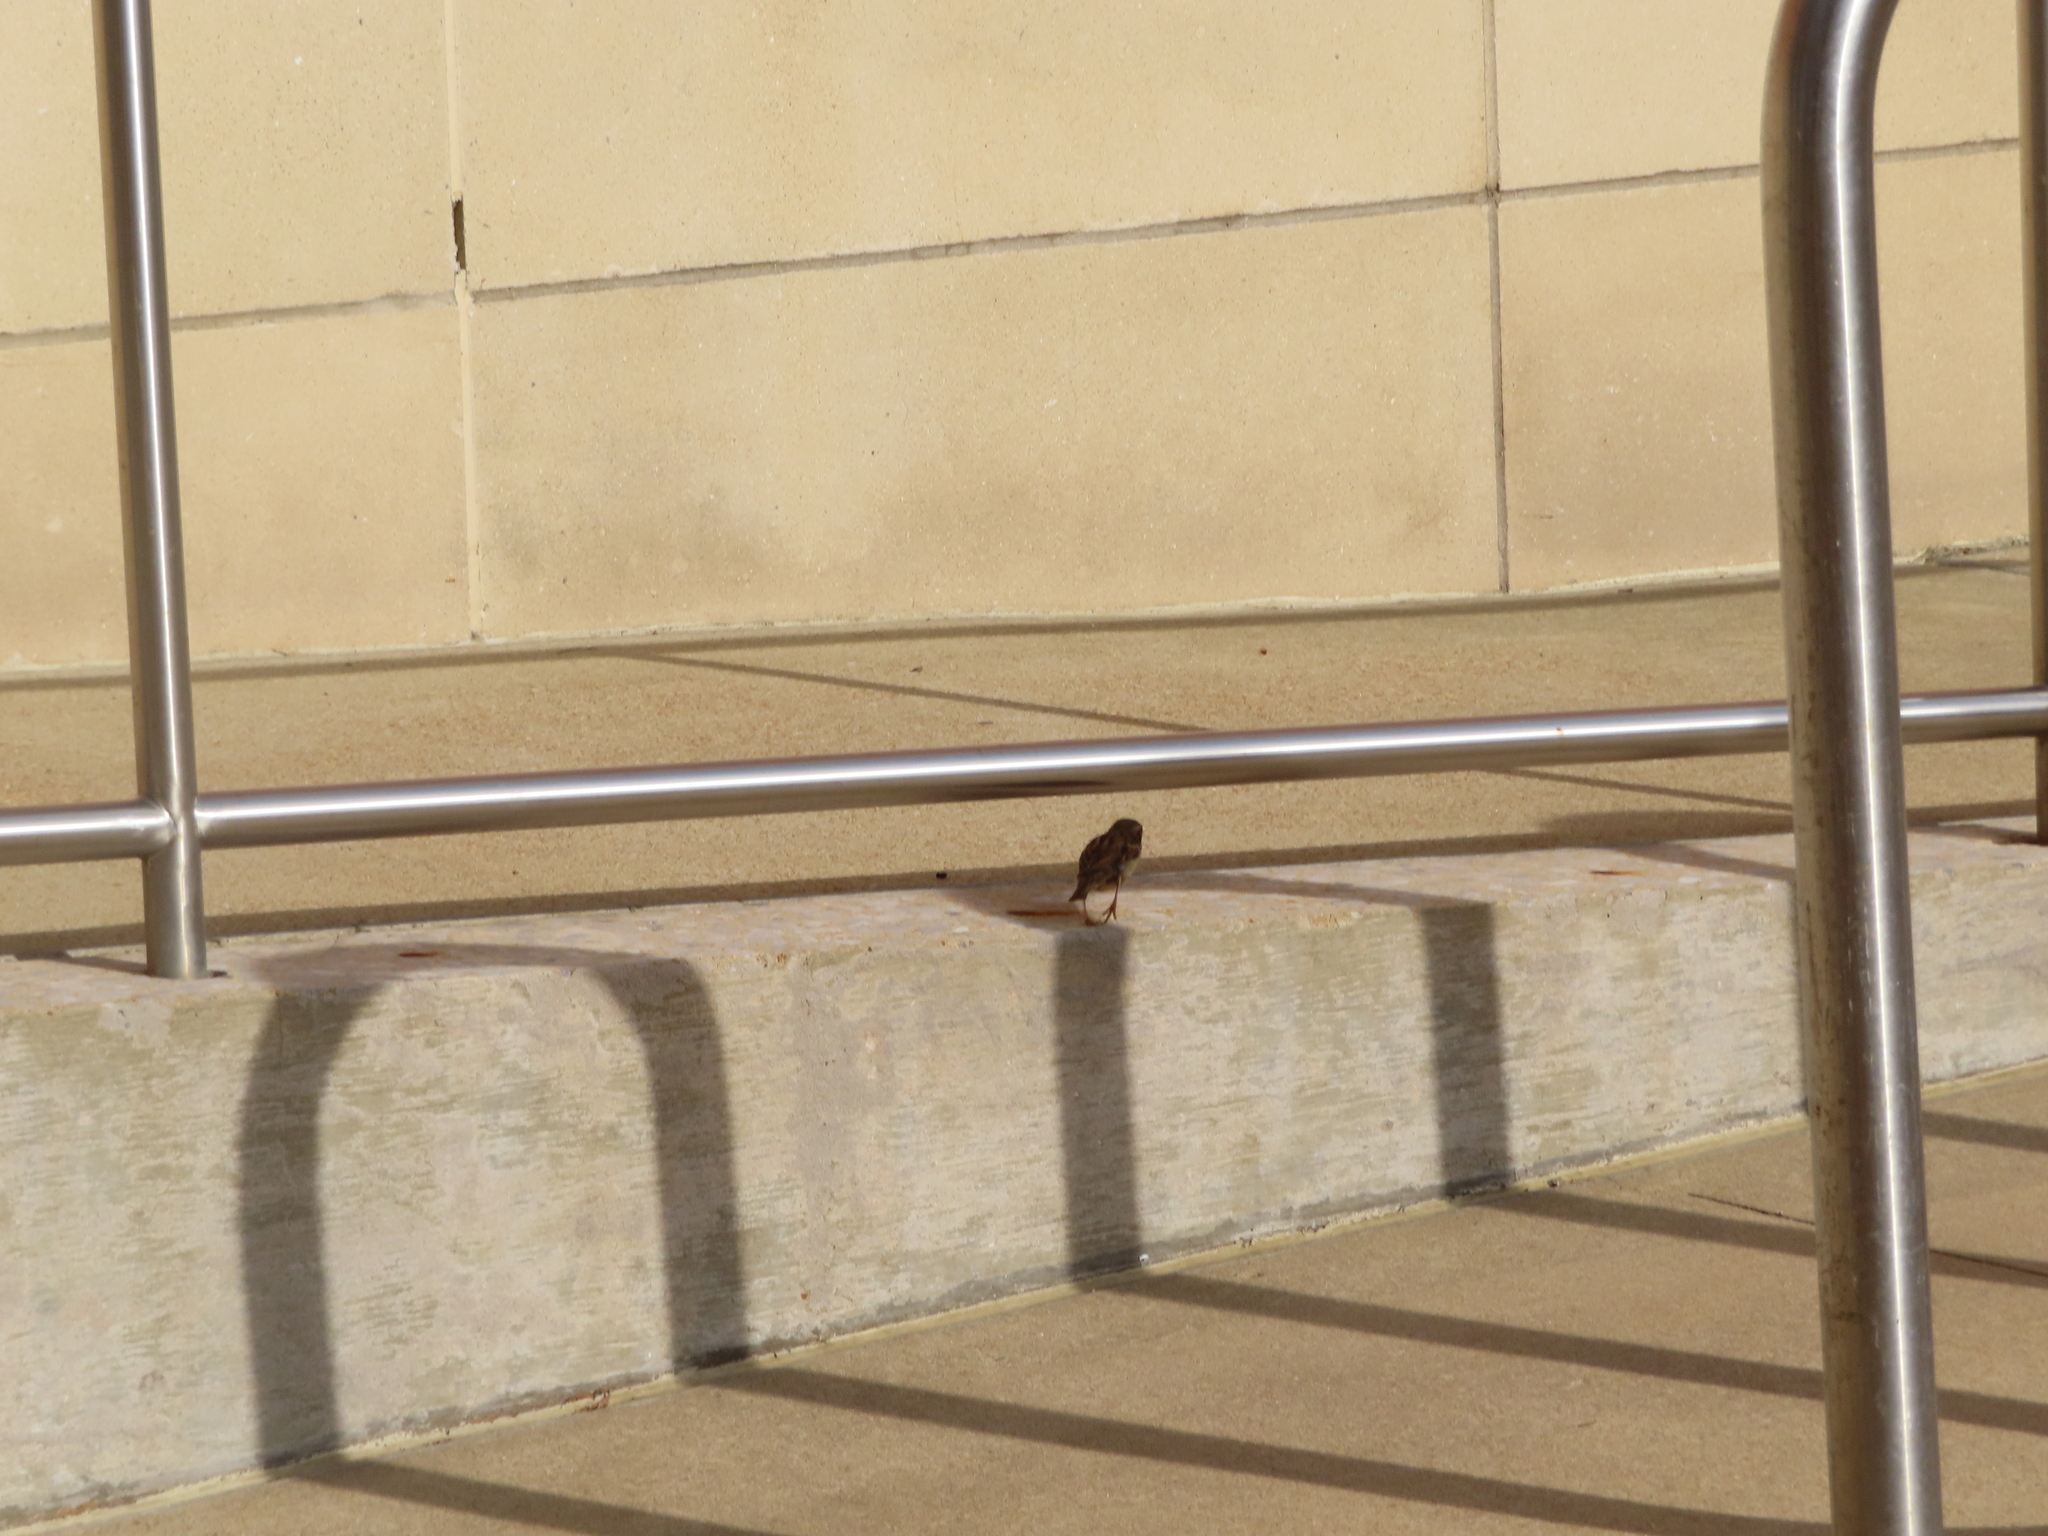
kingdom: Animalia
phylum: Chordata
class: Aves
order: Passeriformes
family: Passeridae
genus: Passer
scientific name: Passer domesticus
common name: House sparrow
